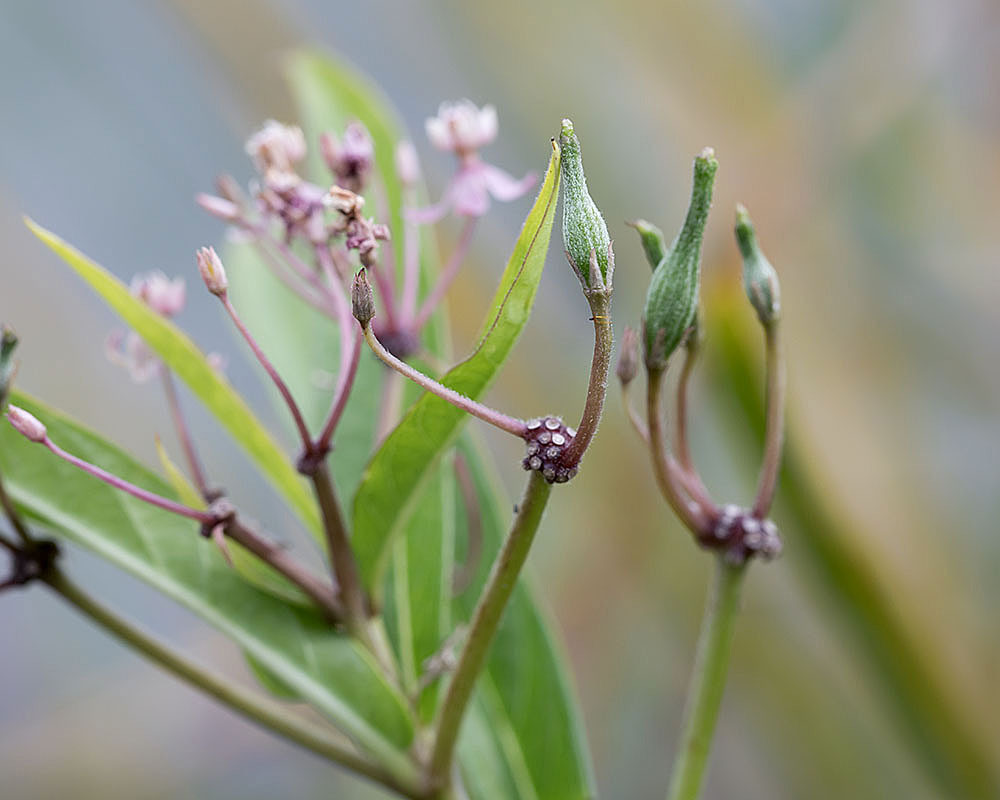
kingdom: Plantae
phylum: Tracheophyta
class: Magnoliopsida
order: Gentianales
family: Apocynaceae
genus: Asclepias
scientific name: Asclepias incarnata
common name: Swamp milkweed
